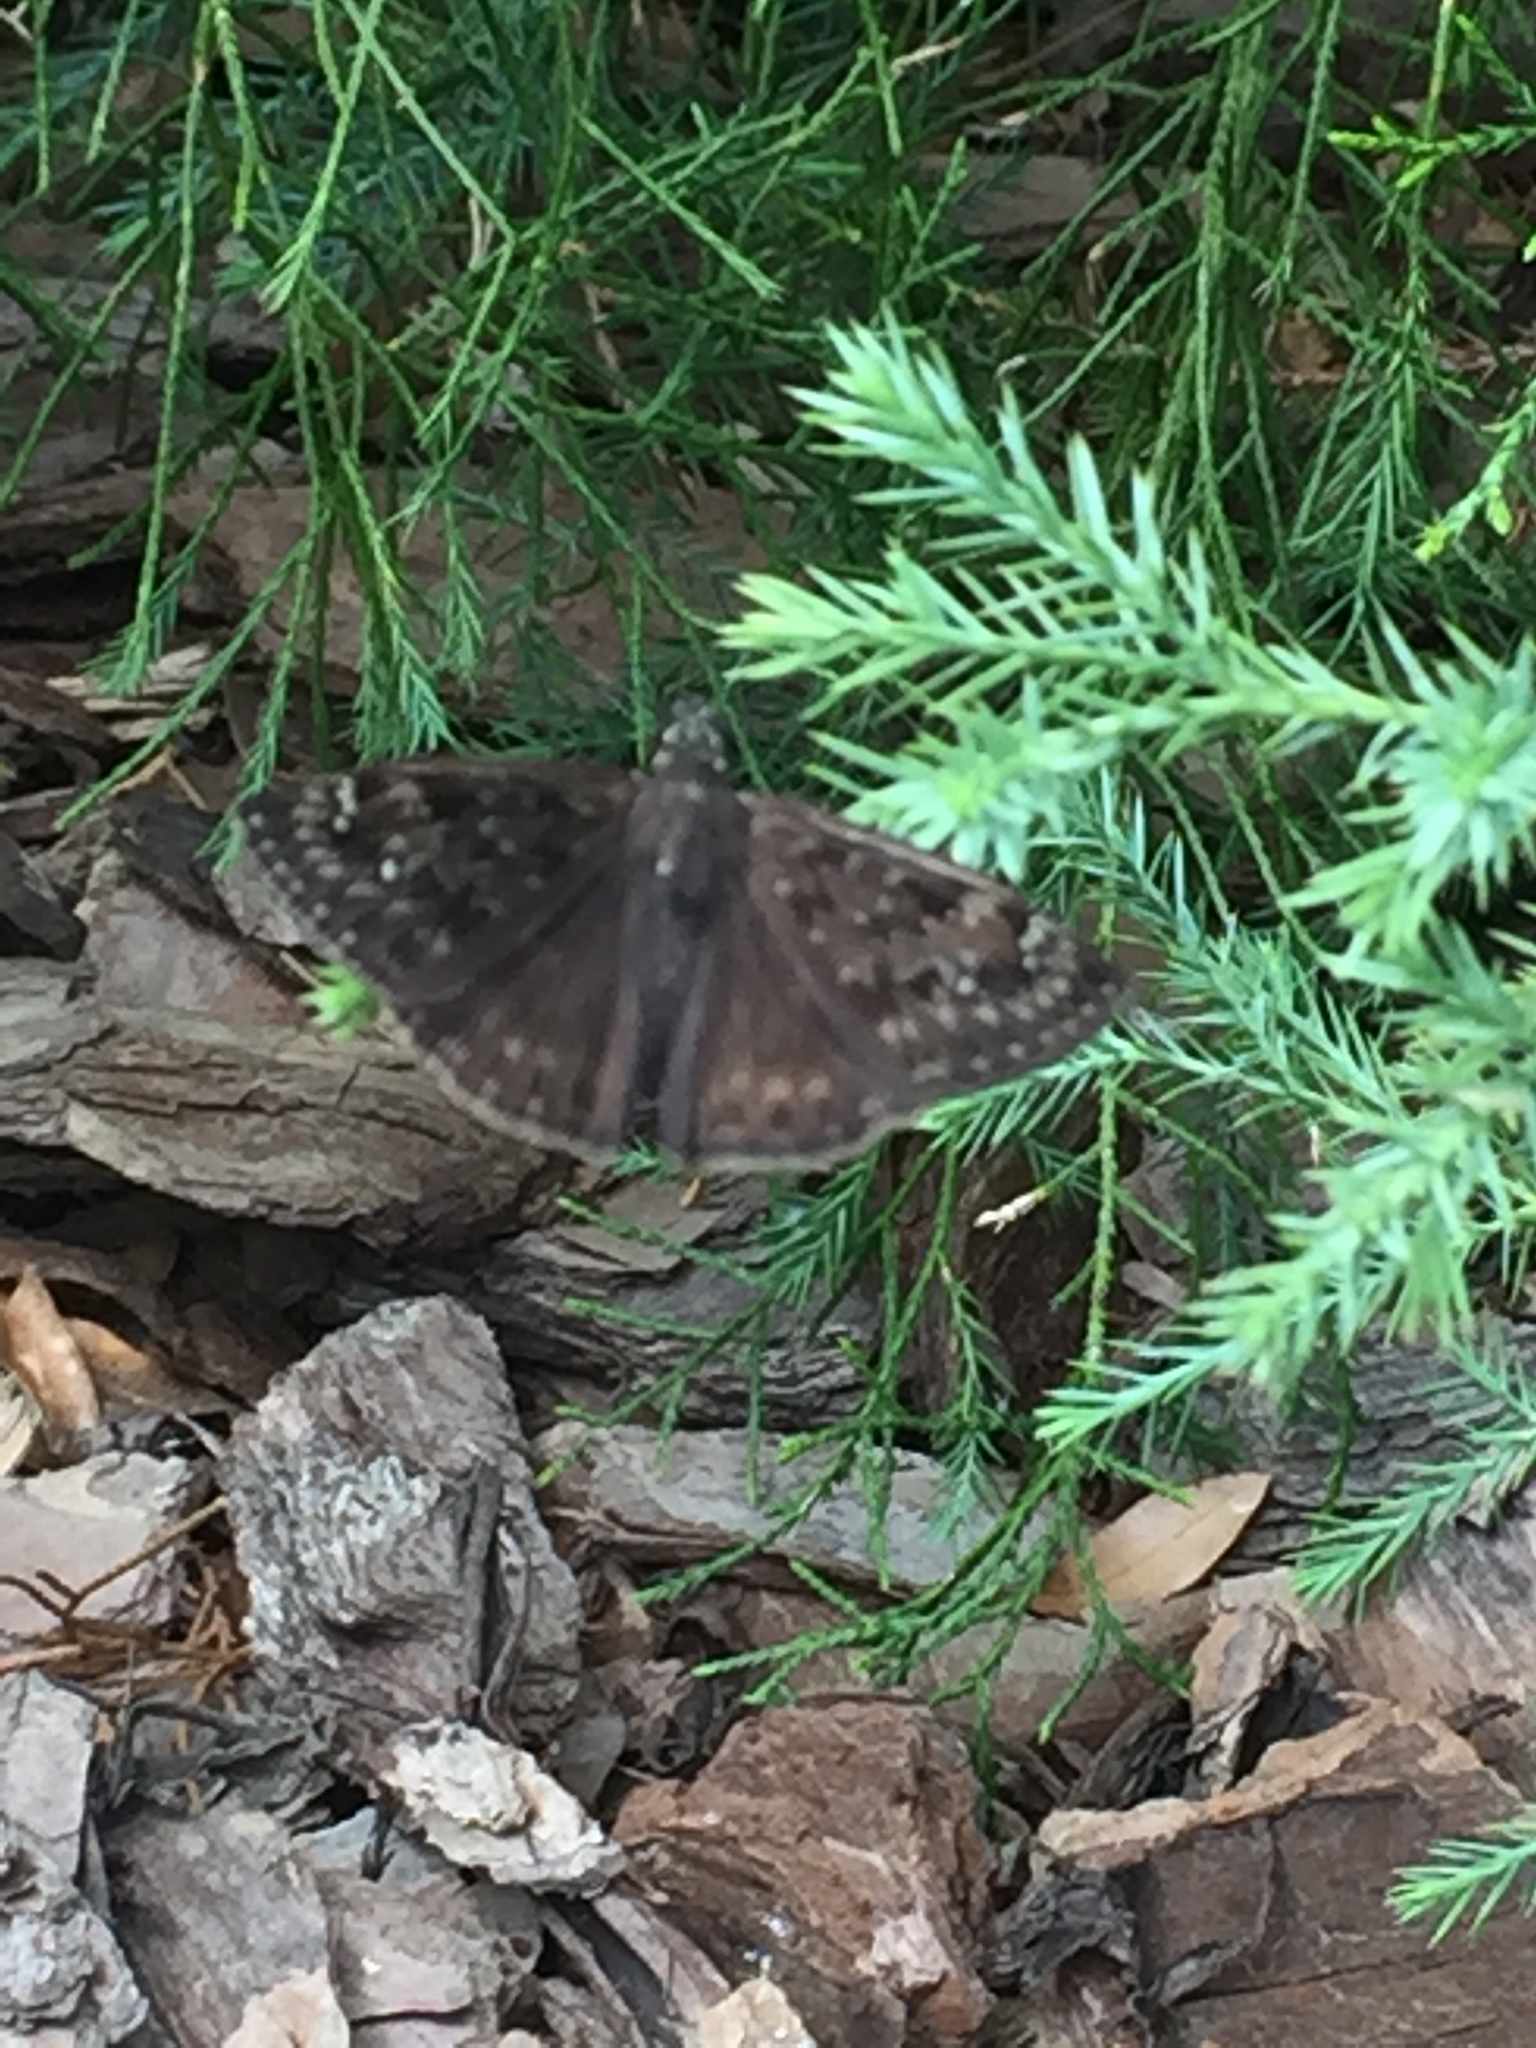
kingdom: Animalia
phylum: Arthropoda
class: Insecta
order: Lepidoptera
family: Hesperiidae
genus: Erynnis
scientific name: Erynnis horatius
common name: Horace's duskywing
